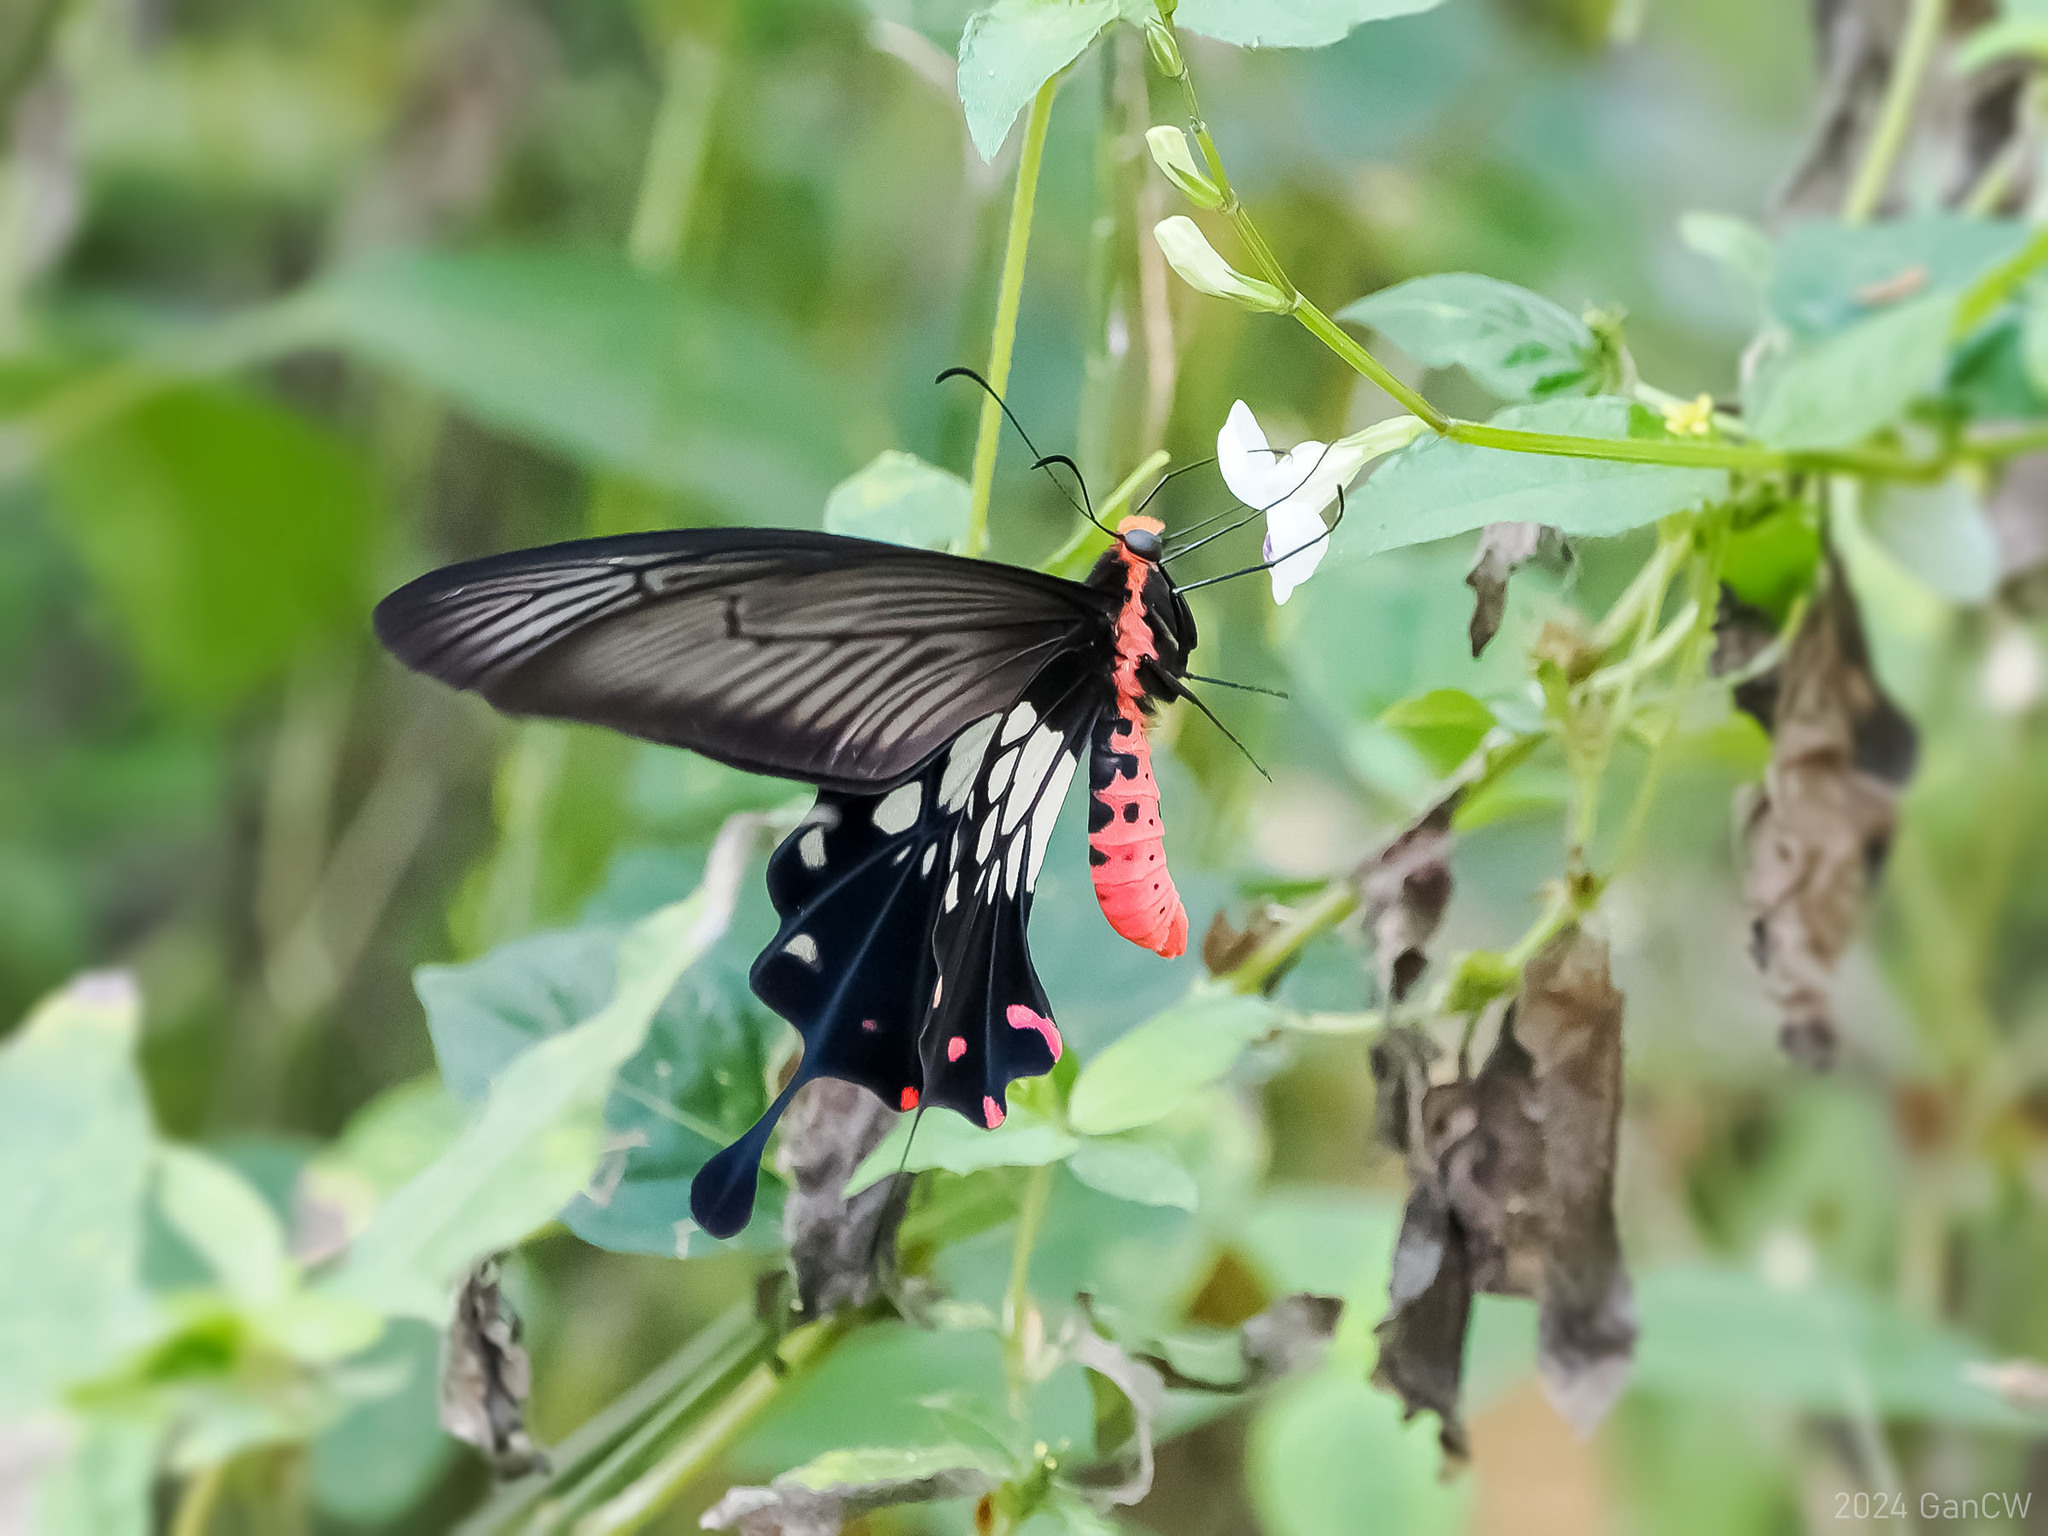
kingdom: Animalia
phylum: Arthropoda
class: Insecta
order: Lepidoptera
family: Papilionidae
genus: Losaria
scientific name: Losaria
